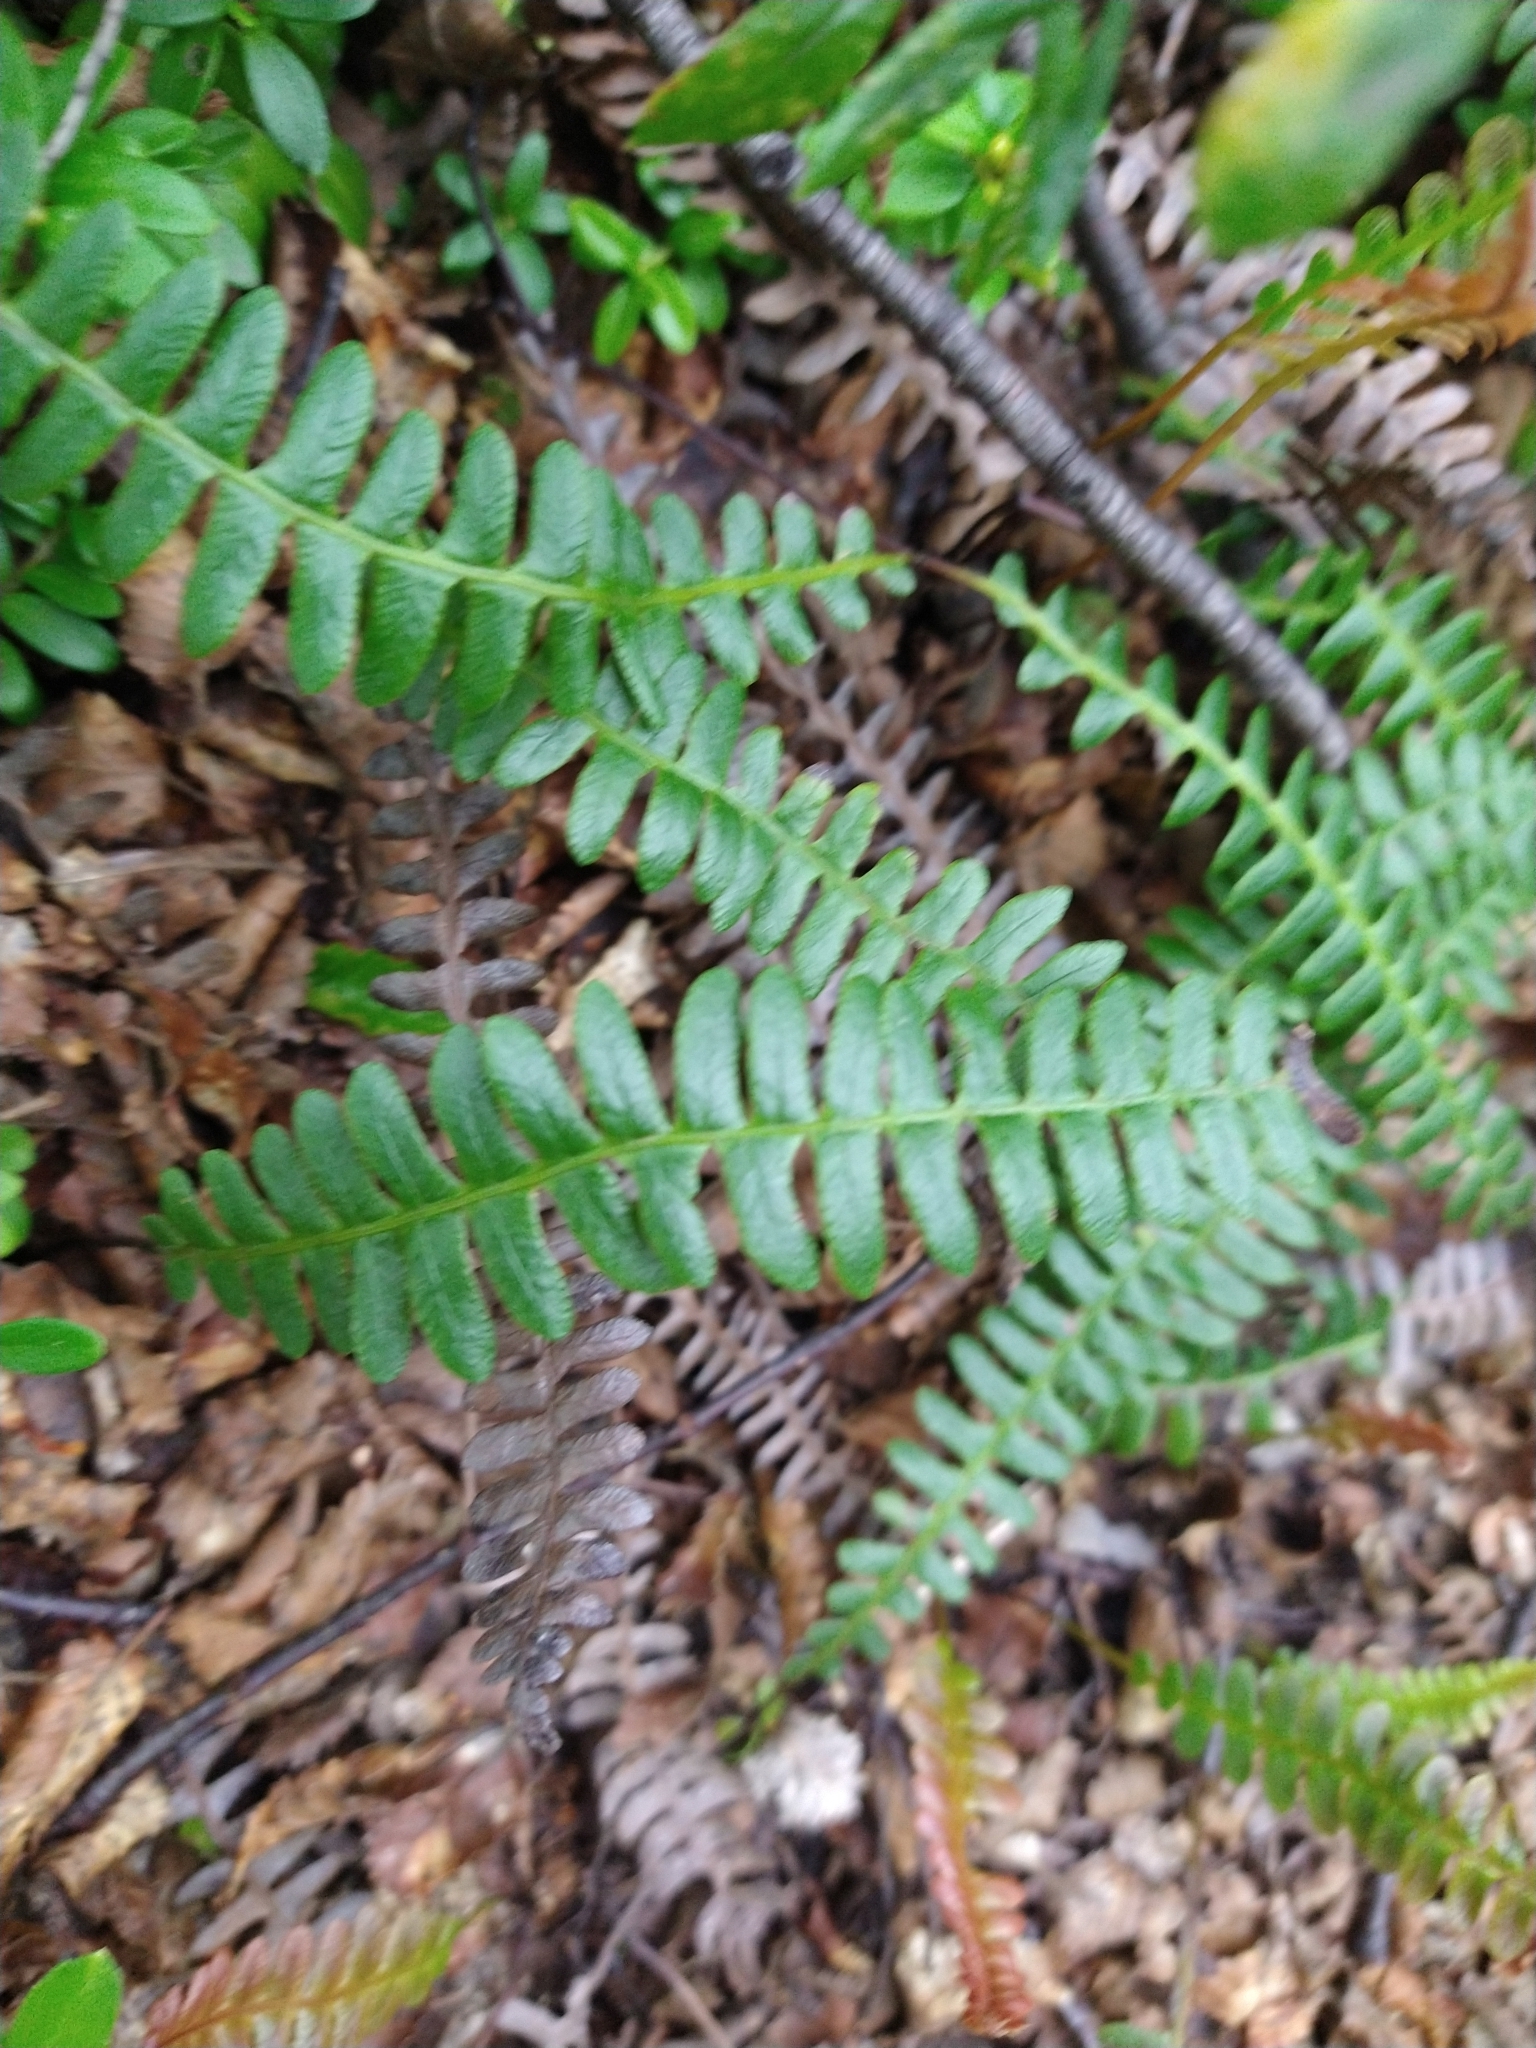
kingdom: Plantae
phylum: Tracheophyta
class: Polypodiopsida
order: Polypodiales
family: Blechnaceae
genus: Austroblechnum
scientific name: Austroblechnum penna-marina
